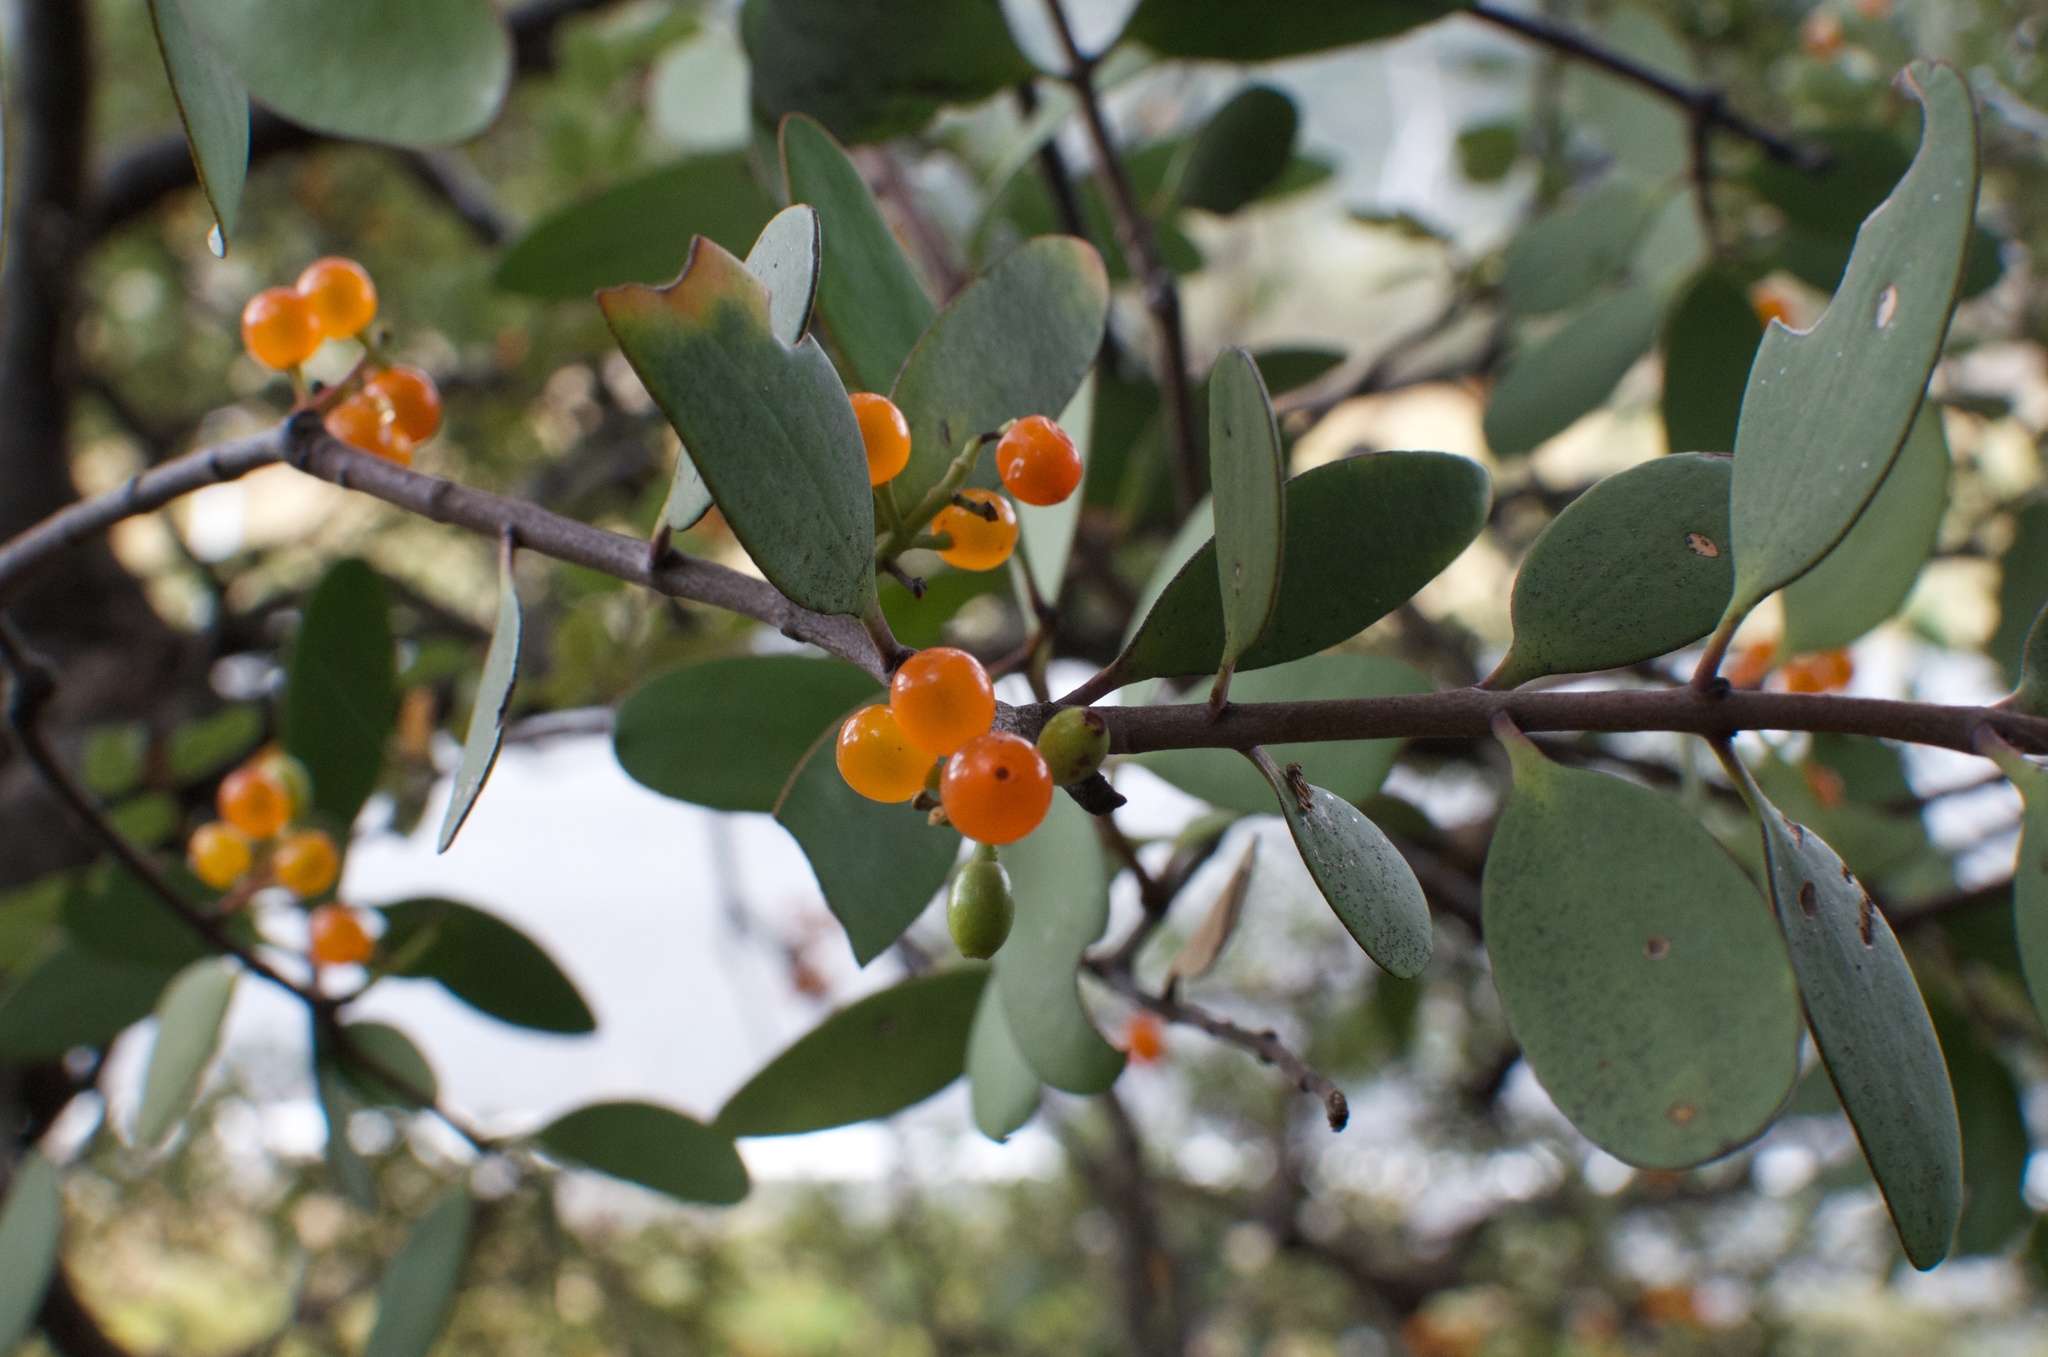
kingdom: Plantae
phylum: Tracheophyta
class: Magnoliopsida
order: Santalales
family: Loranthaceae
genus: Alepis
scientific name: Alepis flavida
